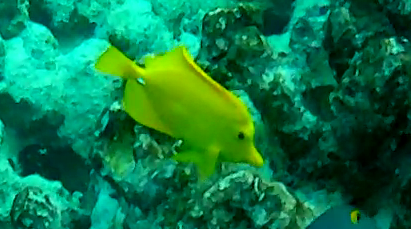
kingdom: Animalia
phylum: Chordata
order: Perciformes
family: Acanthuridae
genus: Zebrasoma
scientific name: Zebrasoma flavescens
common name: Yellow tang
